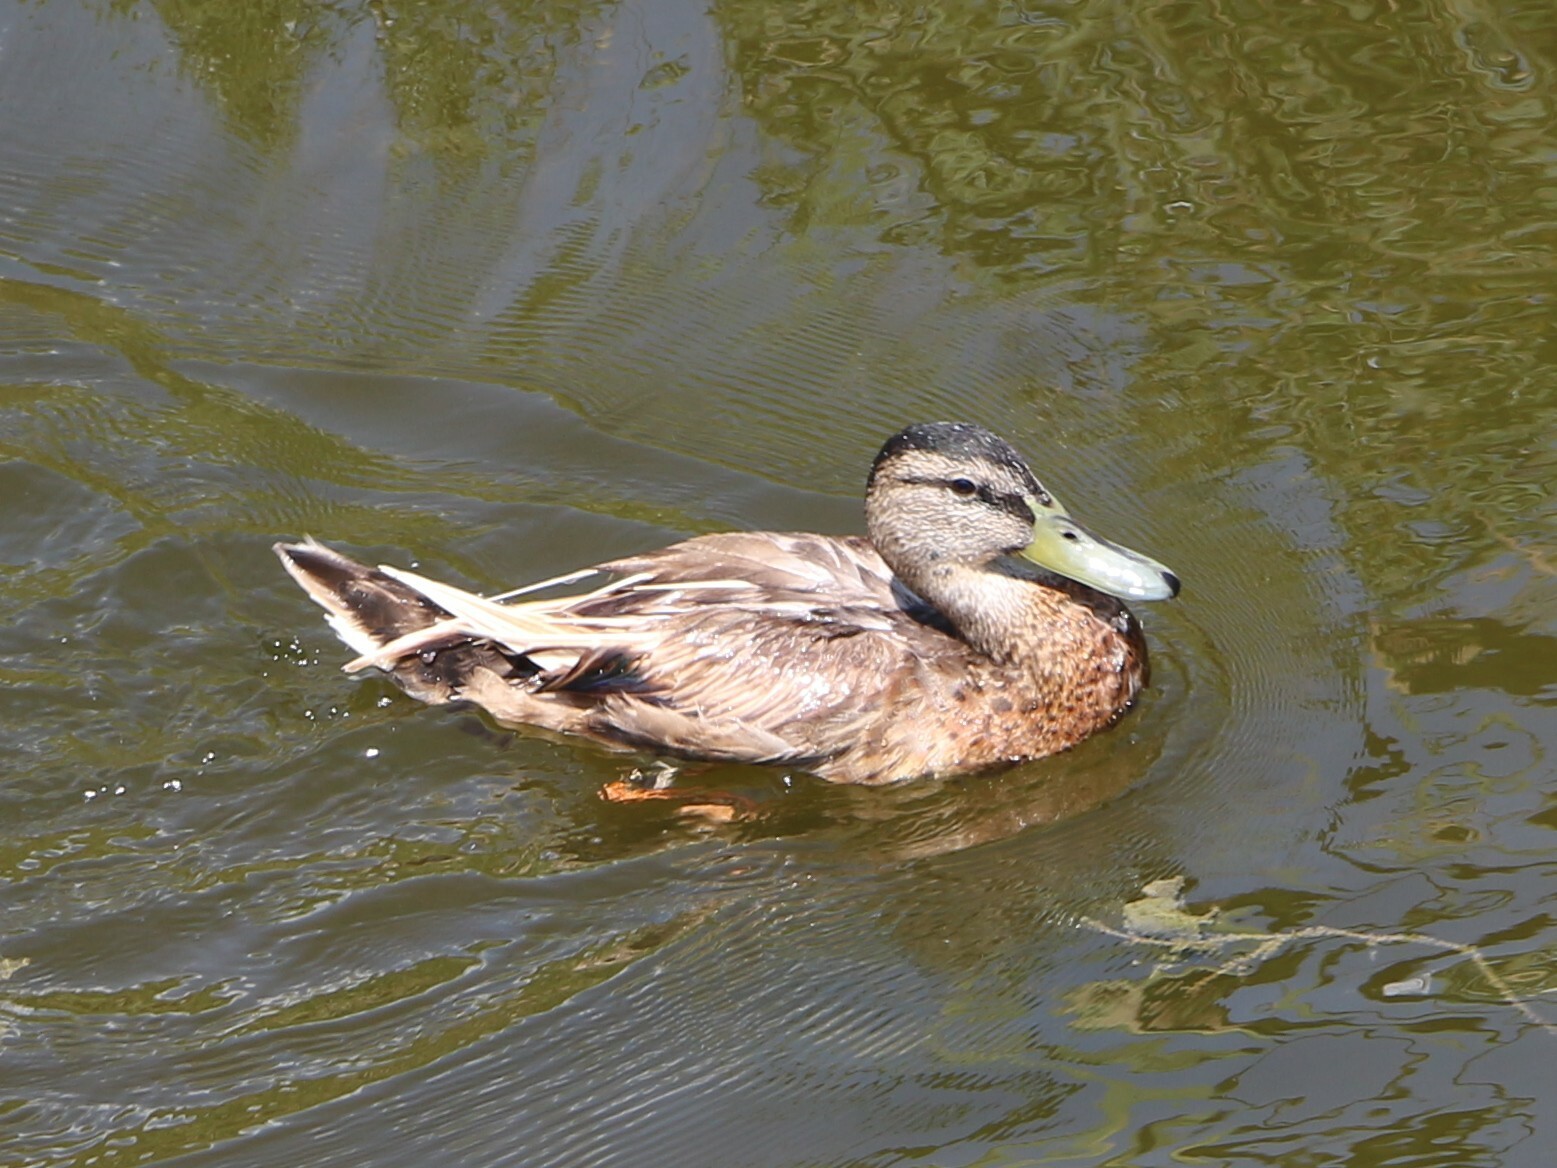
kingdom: Animalia
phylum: Chordata
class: Aves
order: Anseriformes
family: Anatidae
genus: Anas
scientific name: Anas platyrhynchos
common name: Mallard
